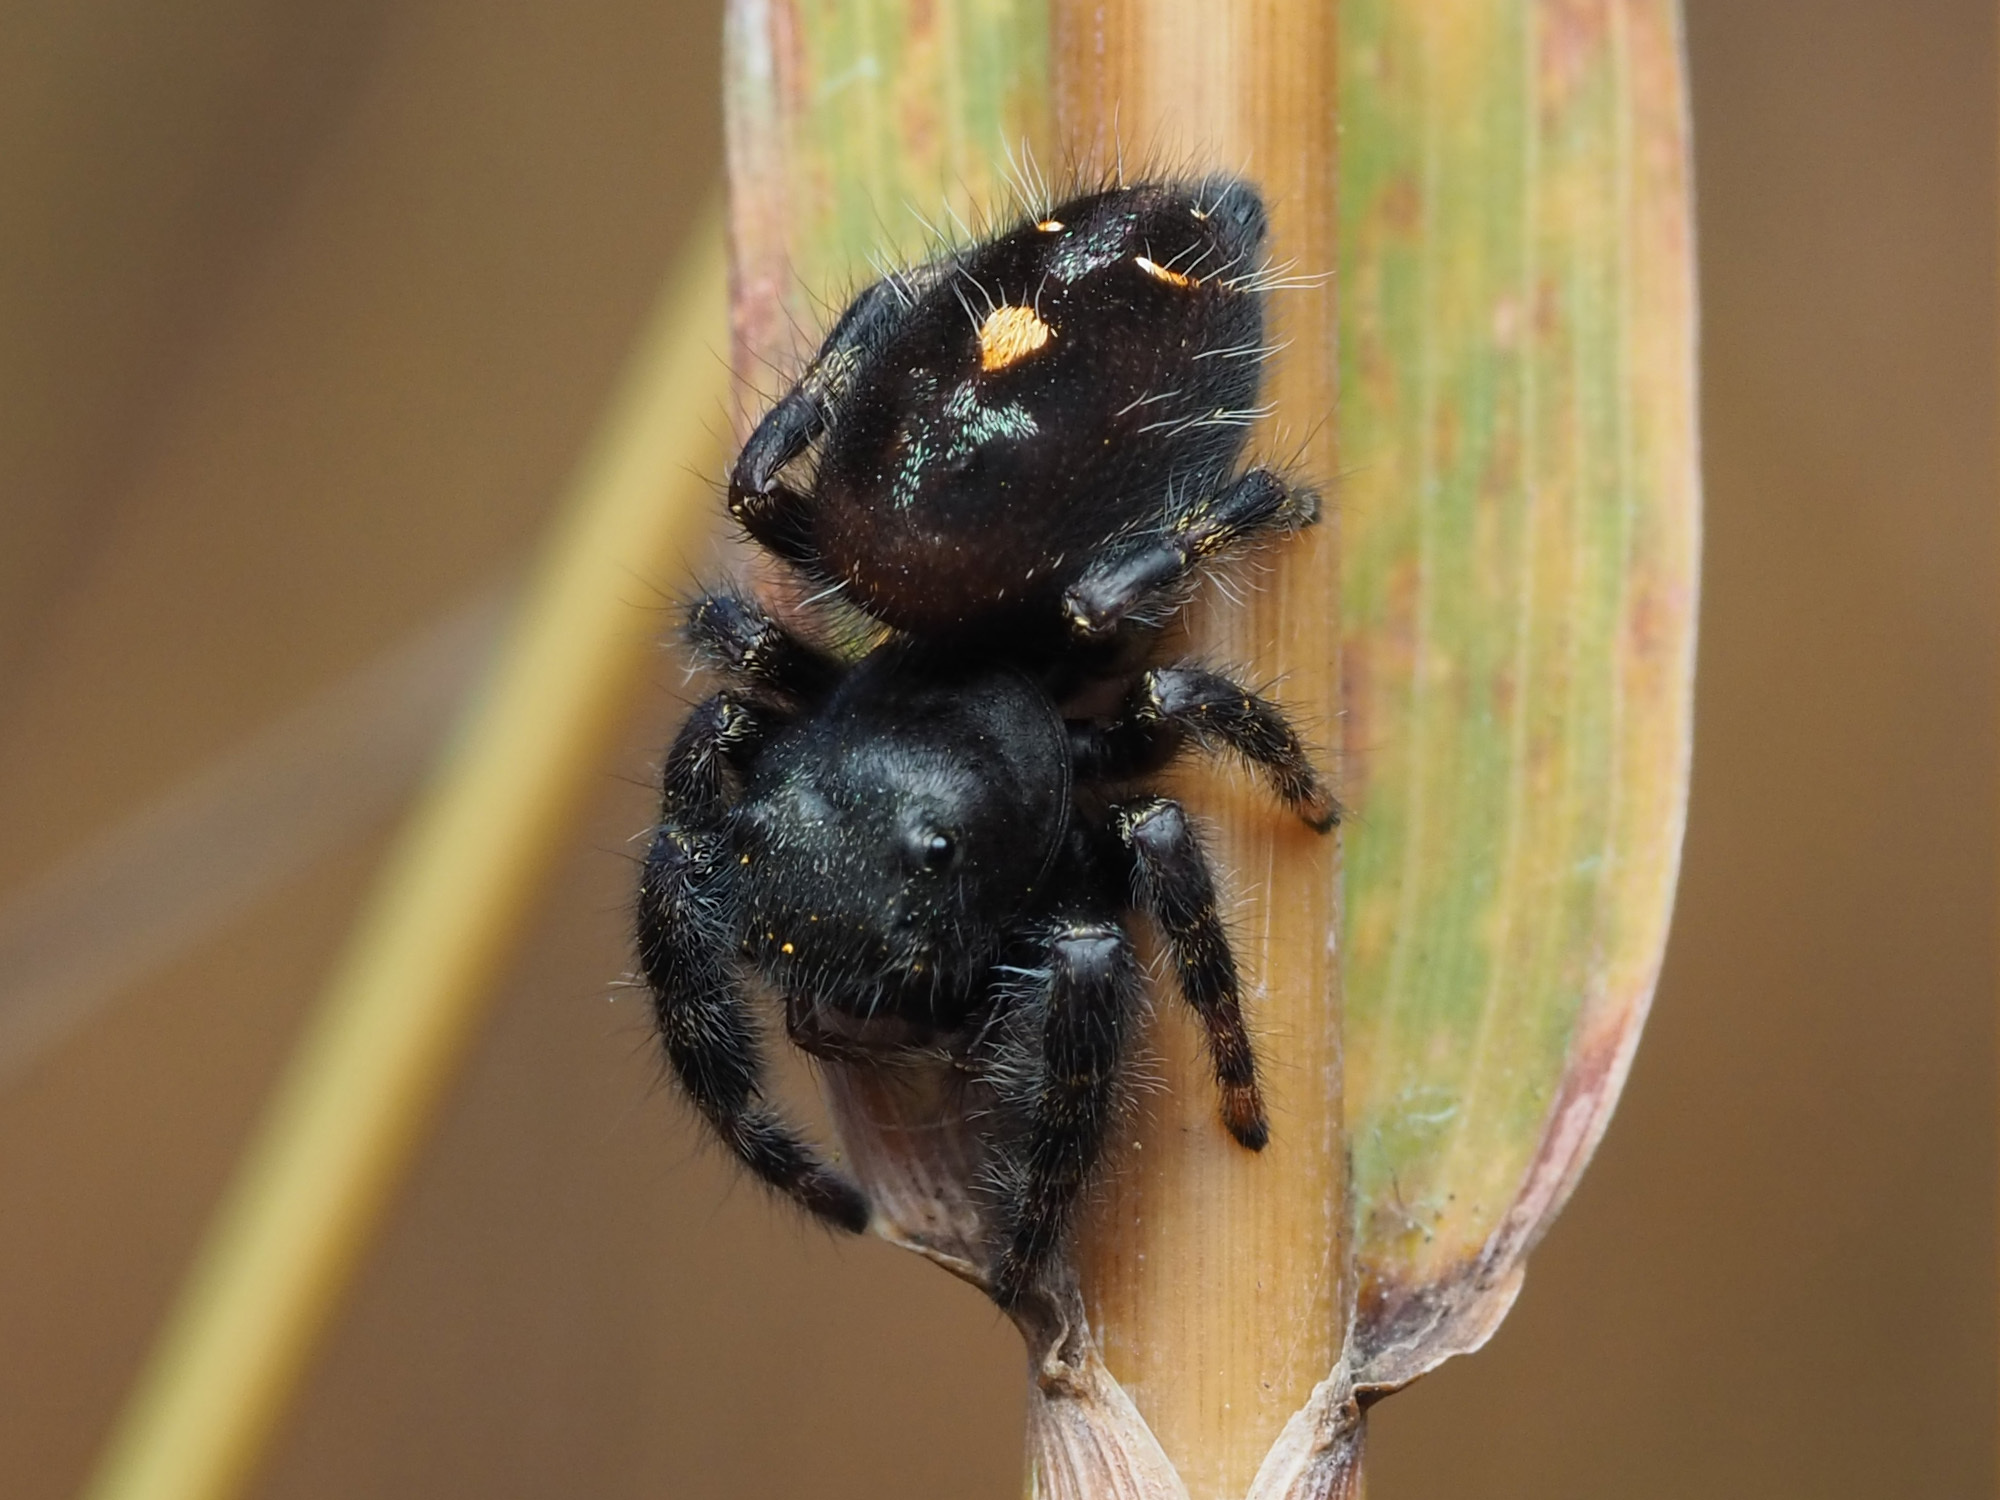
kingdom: Animalia
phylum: Arthropoda
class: Arachnida
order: Araneae
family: Salticidae
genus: Phidippus
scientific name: Phidippus audax
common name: Bold jumper
